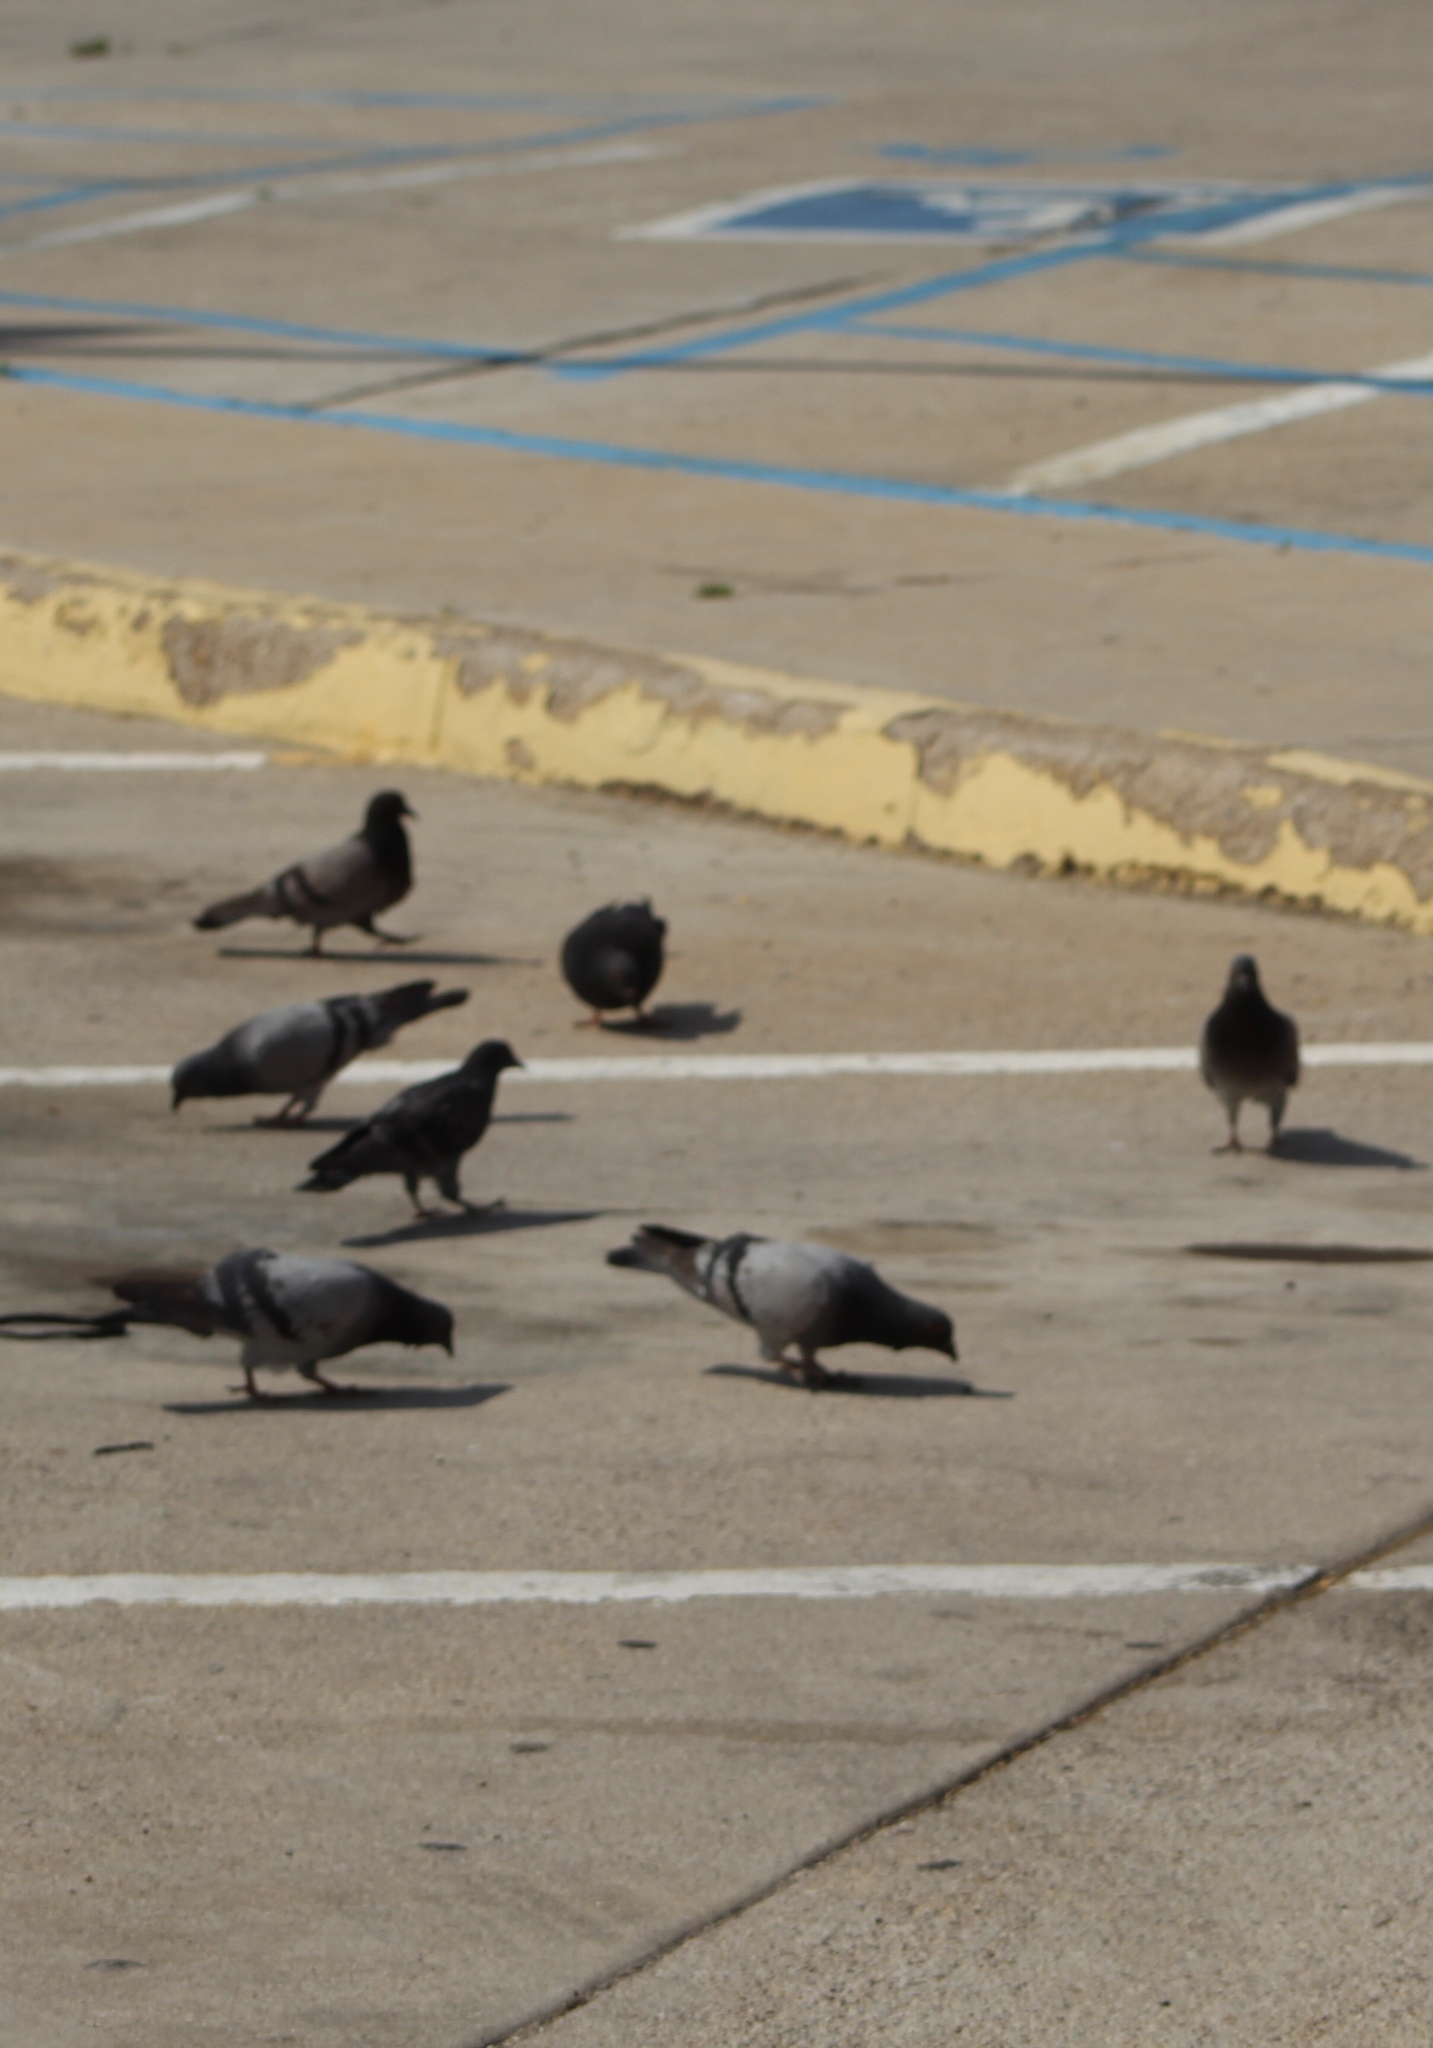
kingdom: Animalia
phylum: Chordata
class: Aves
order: Columbiformes
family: Columbidae
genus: Columba
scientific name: Columba livia
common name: Rock pigeon
